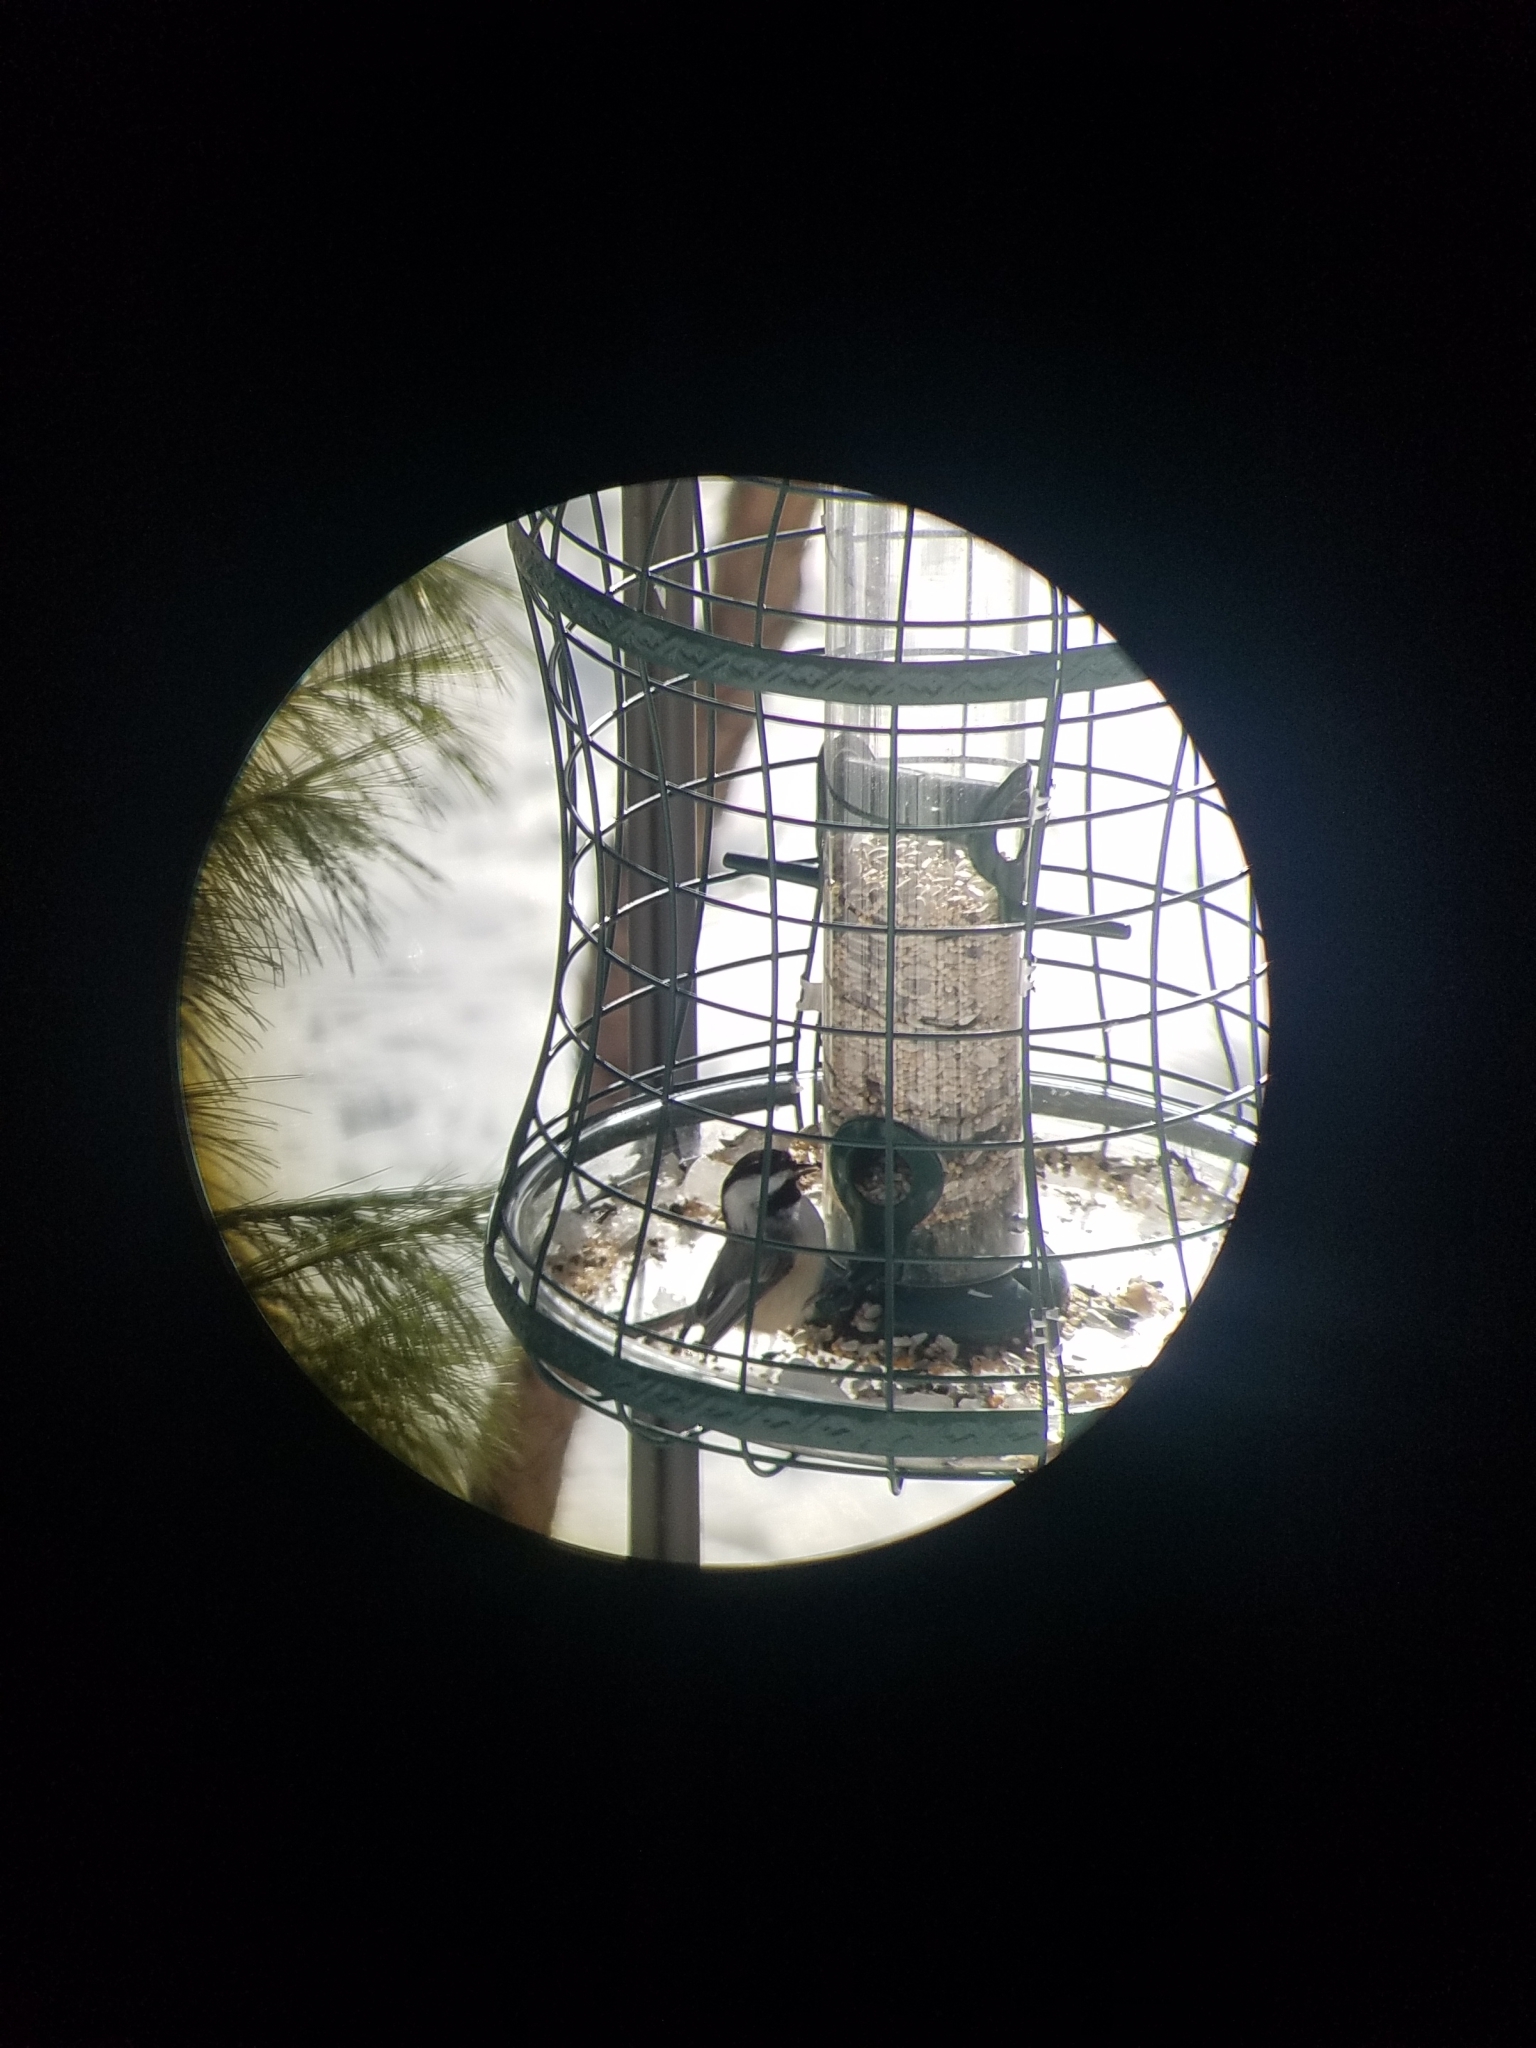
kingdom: Animalia
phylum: Chordata
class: Aves
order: Passeriformes
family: Paridae
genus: Poecile
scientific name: Poecile atricapillus
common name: Black-capped chickadee
